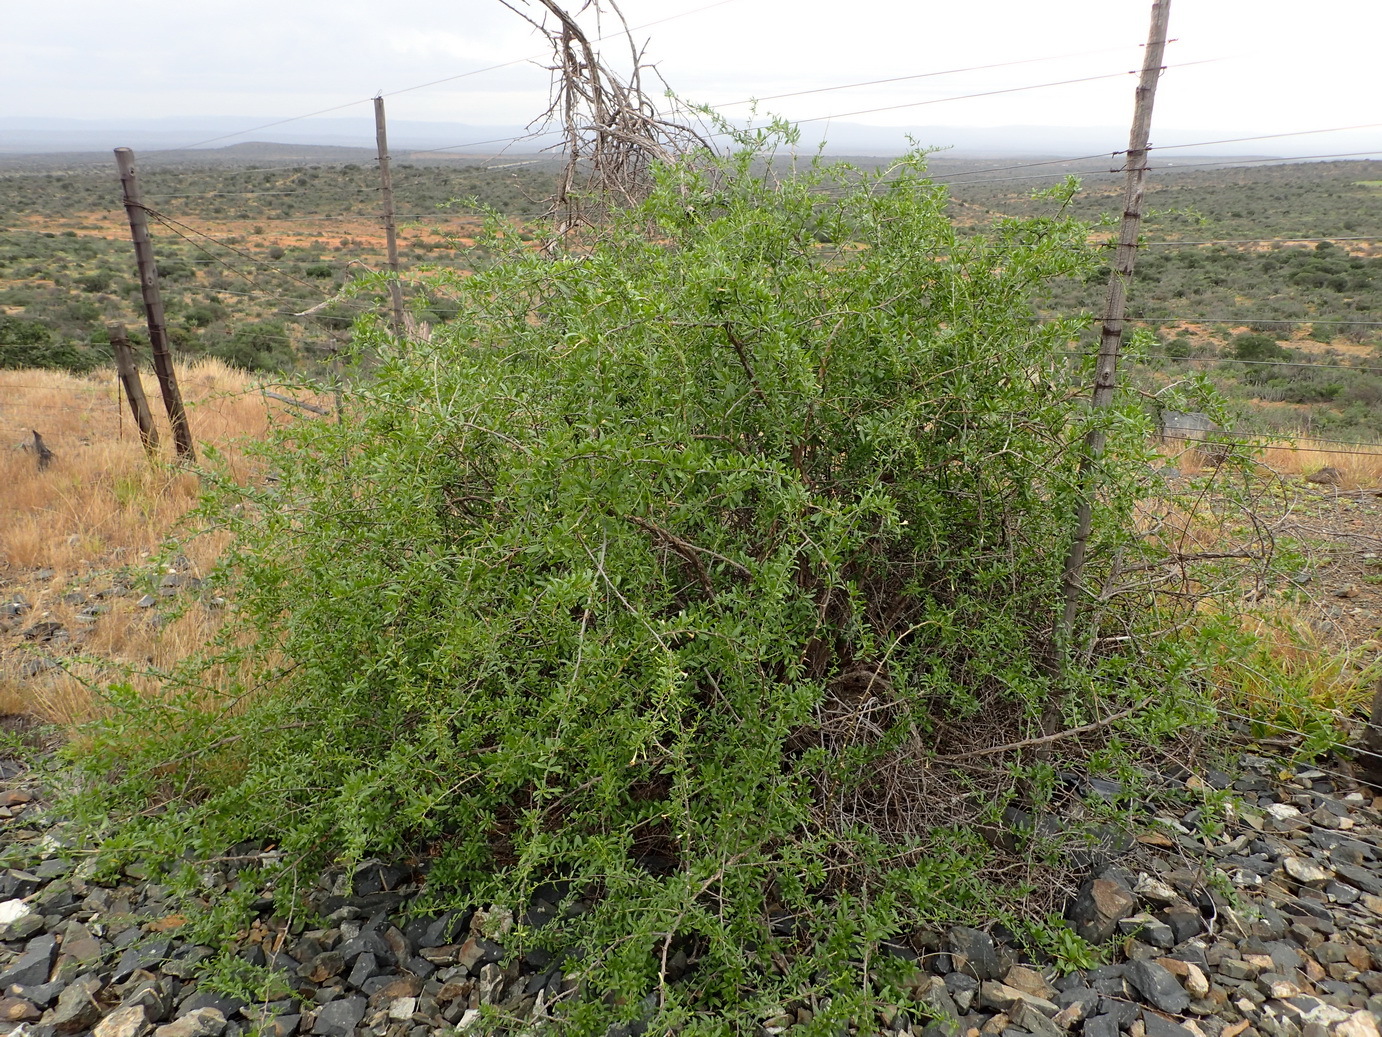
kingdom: Plantae
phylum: Tracheophyta
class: Magnoliopsida
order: Solanales
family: Solanaceae
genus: Lycium
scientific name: Lycium oxycarpum
